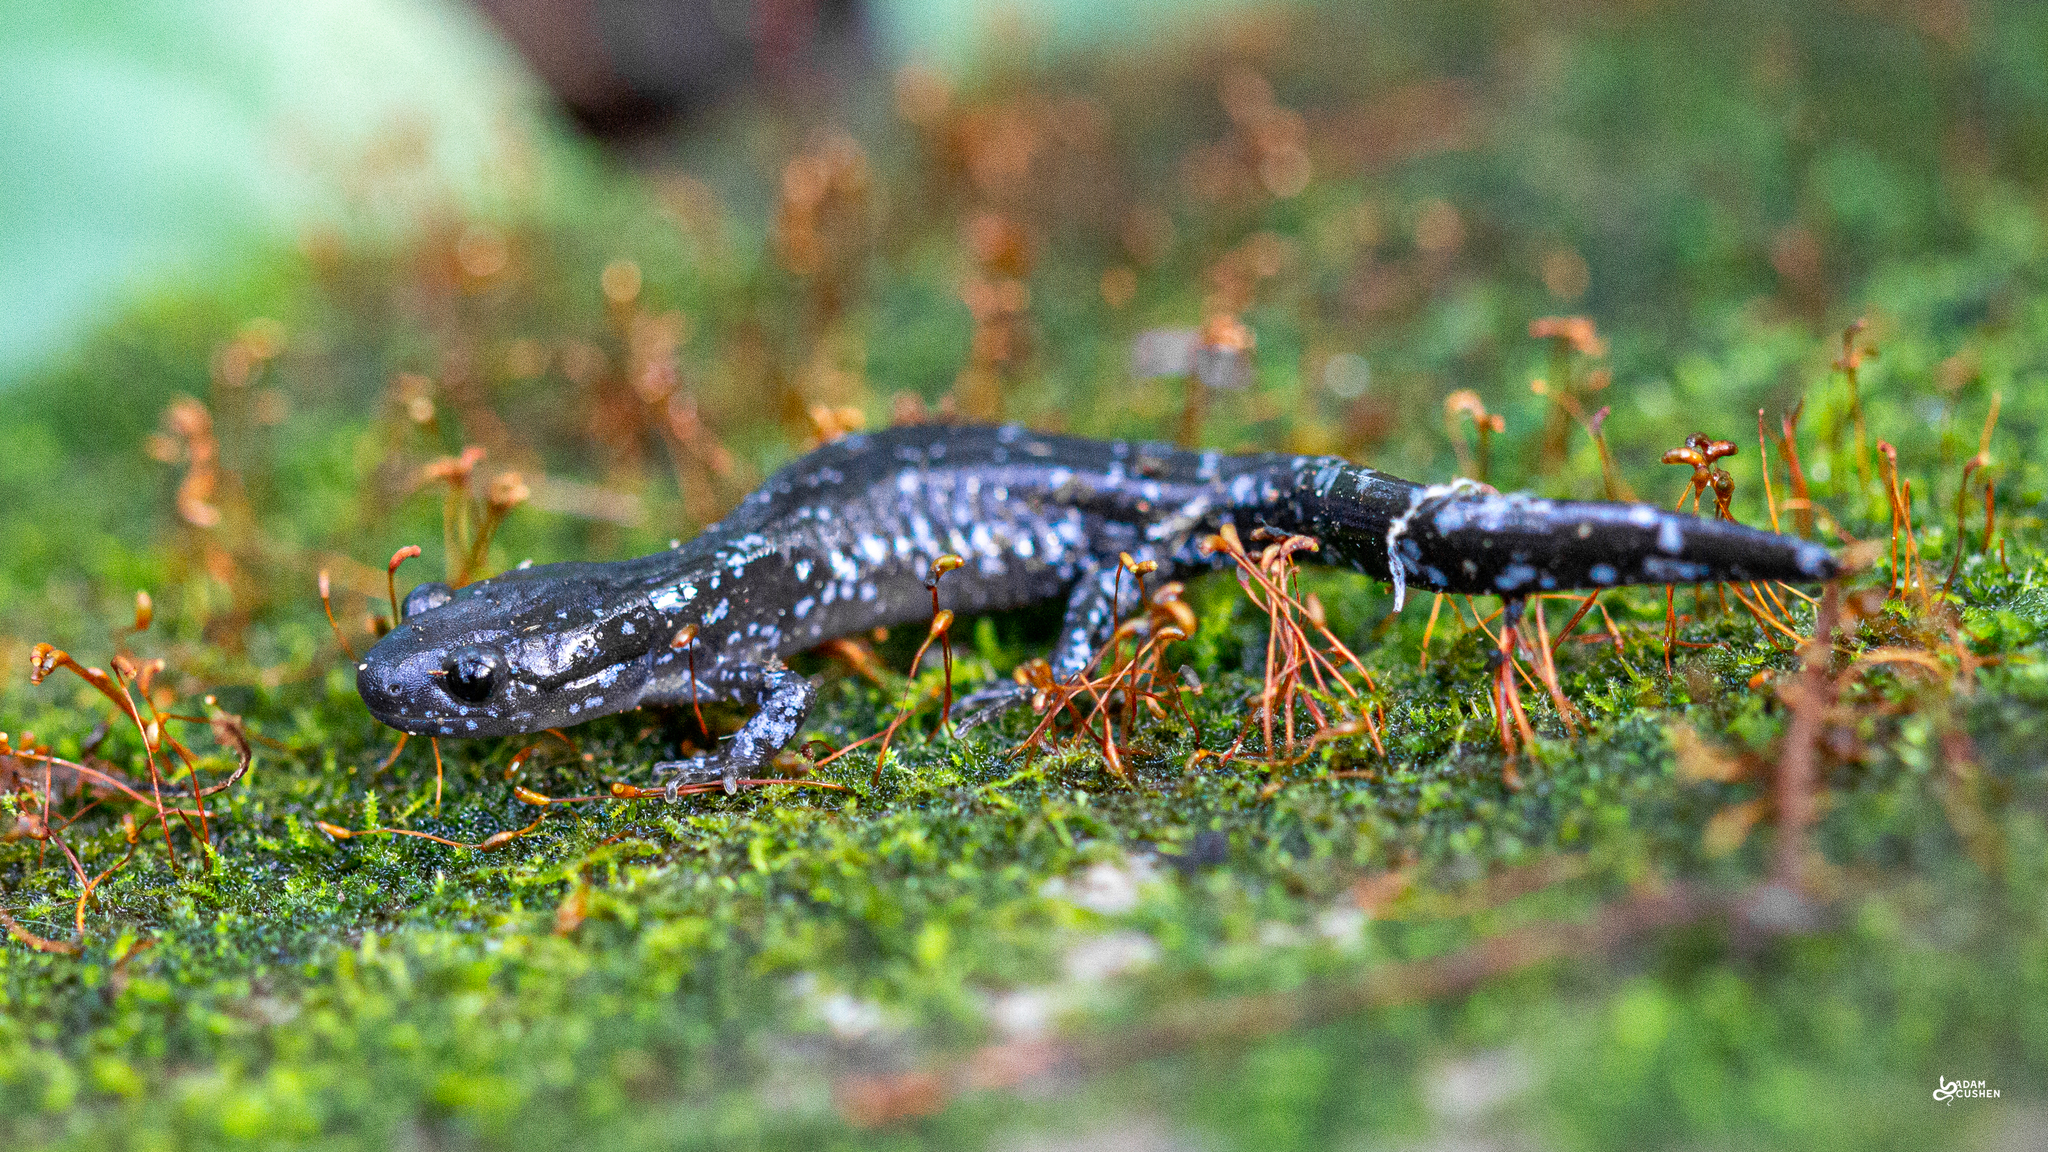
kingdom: Animalia
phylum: Chordata
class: Amphibia
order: Caudata
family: Ambystomatidae
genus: Ambystoma
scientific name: Ambystoma laterale
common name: Blue-spotted salamander
